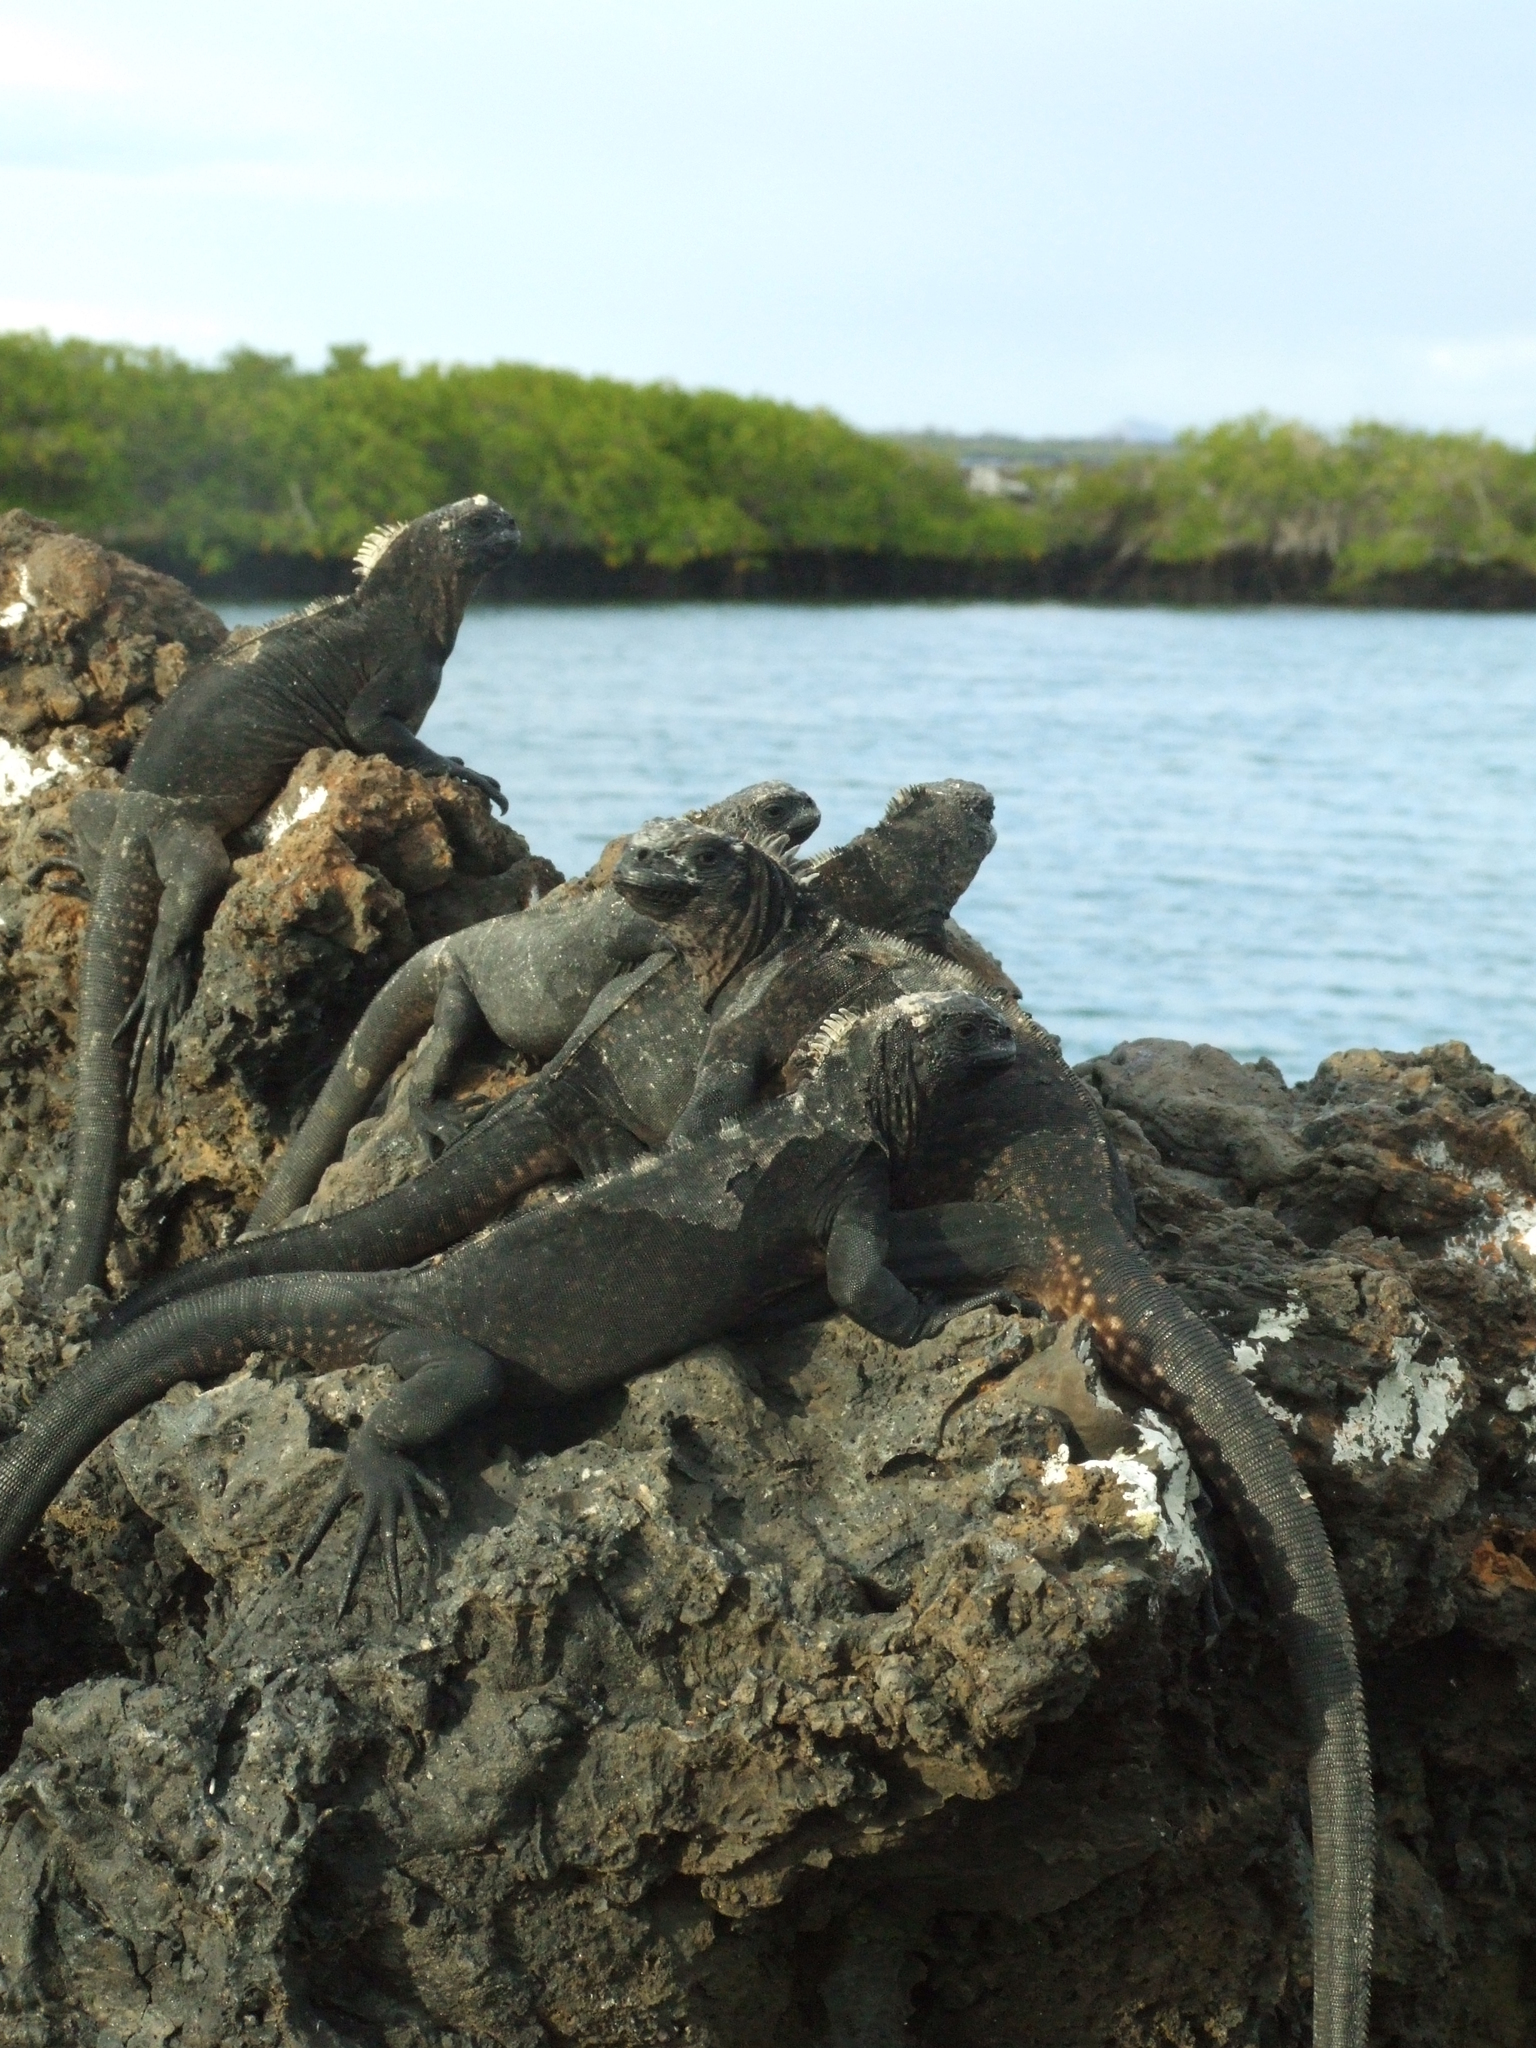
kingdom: Animalia
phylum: Chordata
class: Squamata
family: Iguanidae
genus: Amblyrhynchus
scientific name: Amblyrhynchus cristatus
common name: Marine iguana
